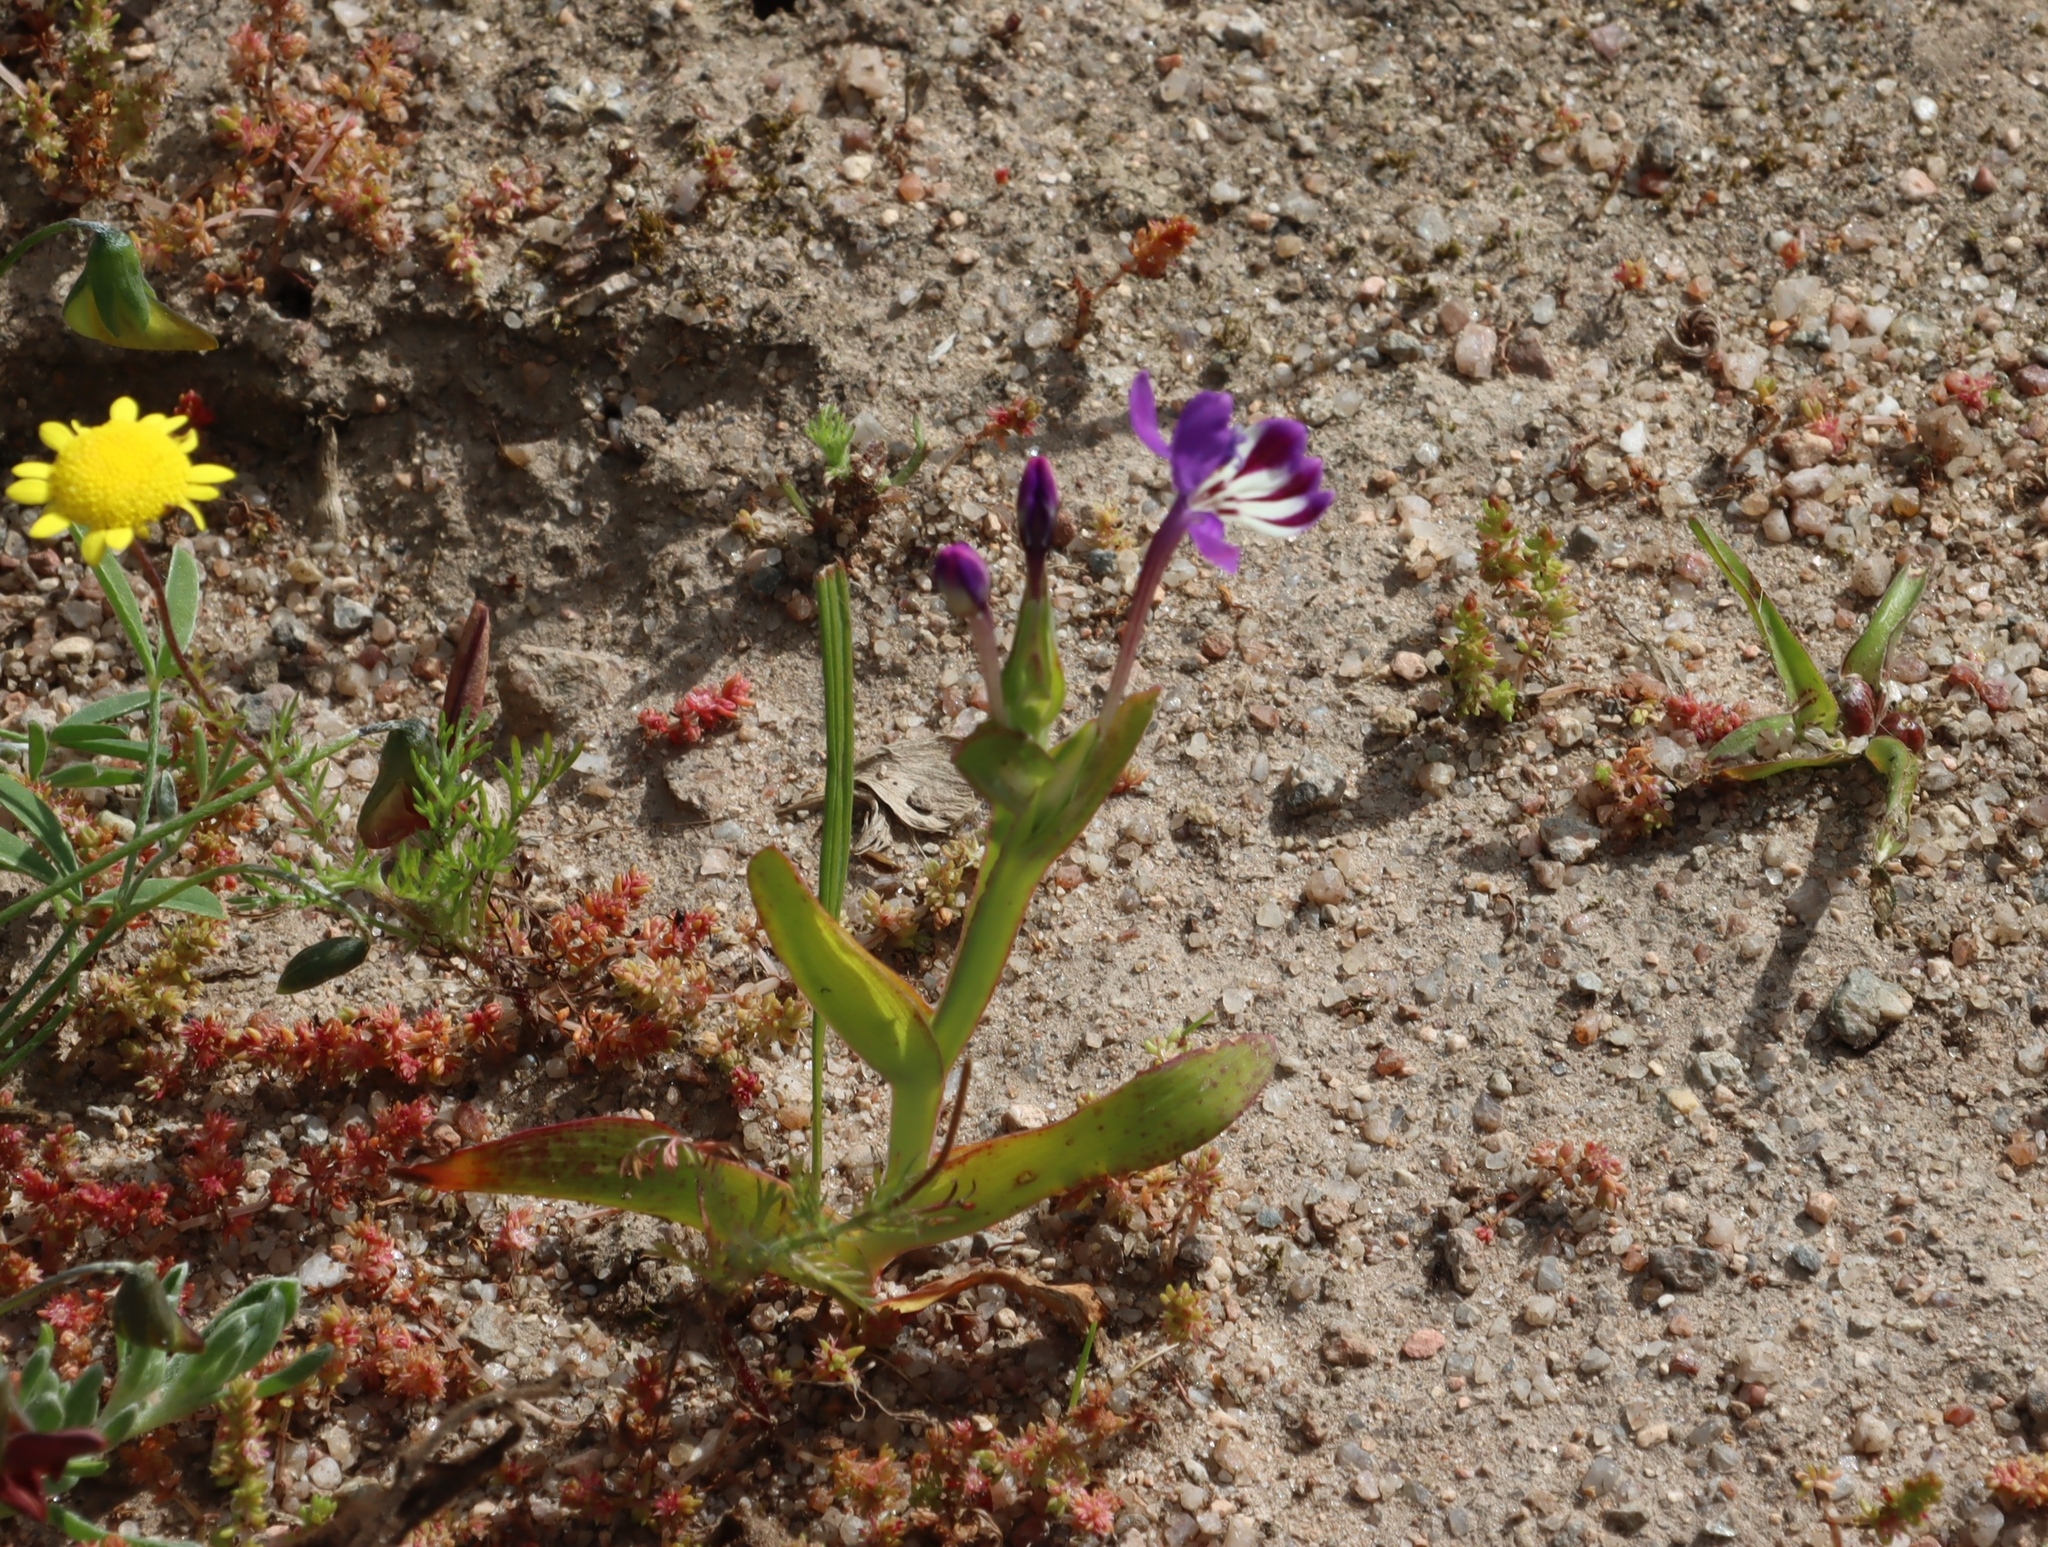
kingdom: Plantae
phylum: Tracheophyta
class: Liliopsida
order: Asparagales
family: Iridaceae
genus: Lapeirousia
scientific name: Lapeirousia jacquinii
